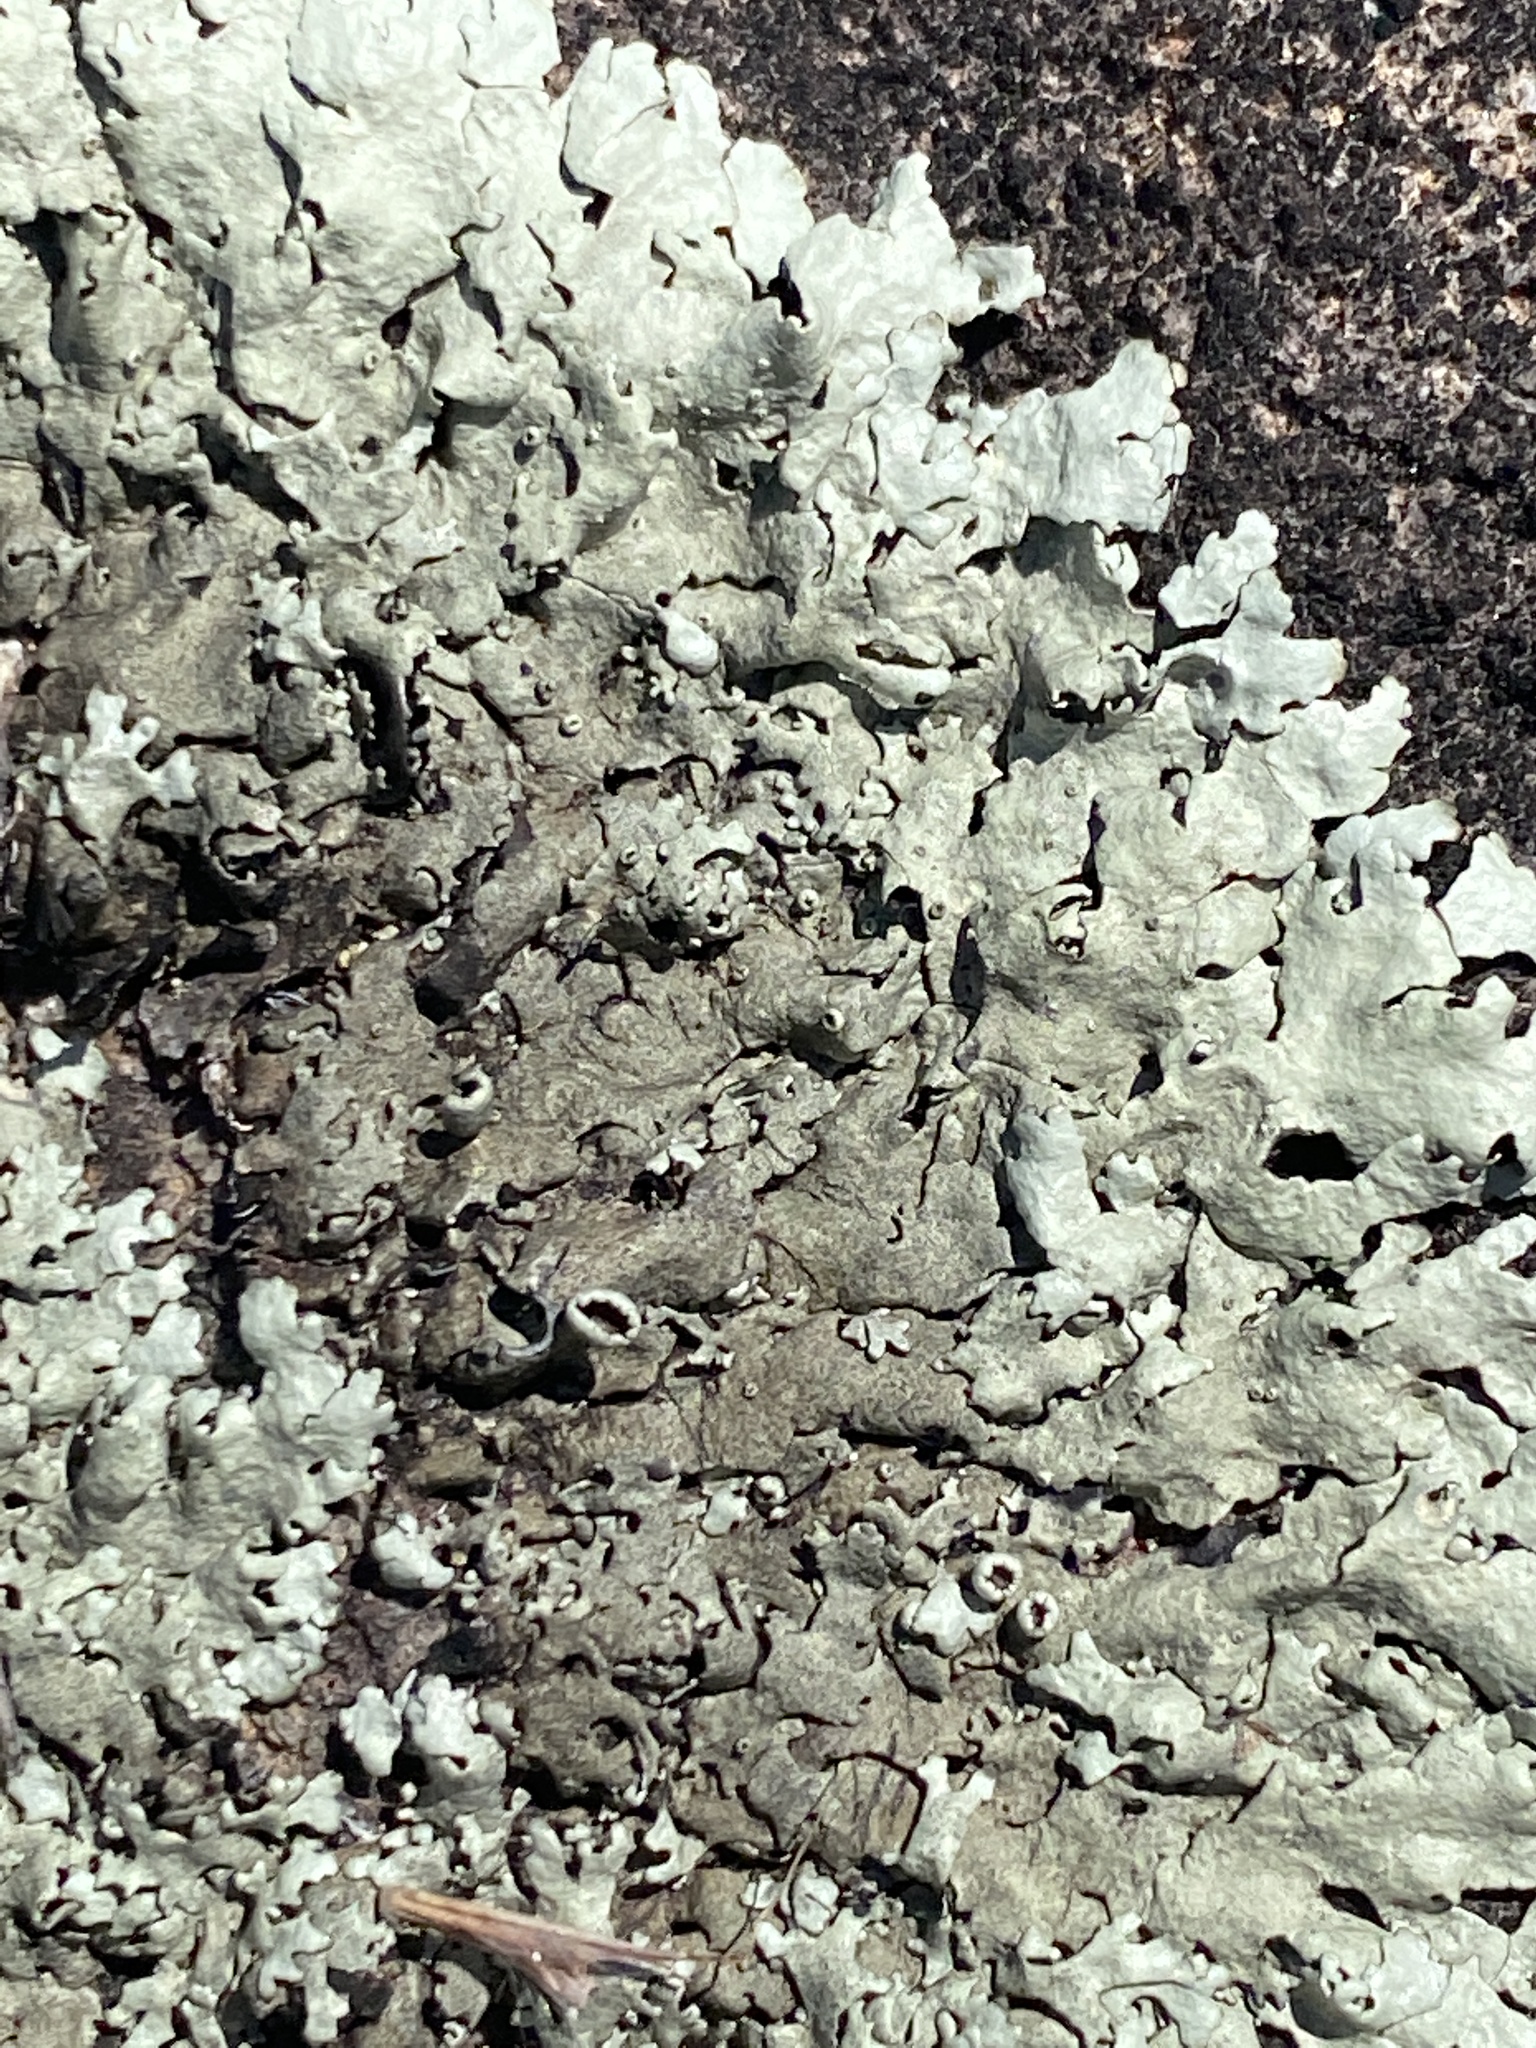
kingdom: Fungi
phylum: Ascomycota
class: Lecanoromycetes
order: Lecanorales
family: Parmeliaceae
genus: Flavoparmelia
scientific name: Flavoparmelia caperata
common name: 40-mile per hour lichen
